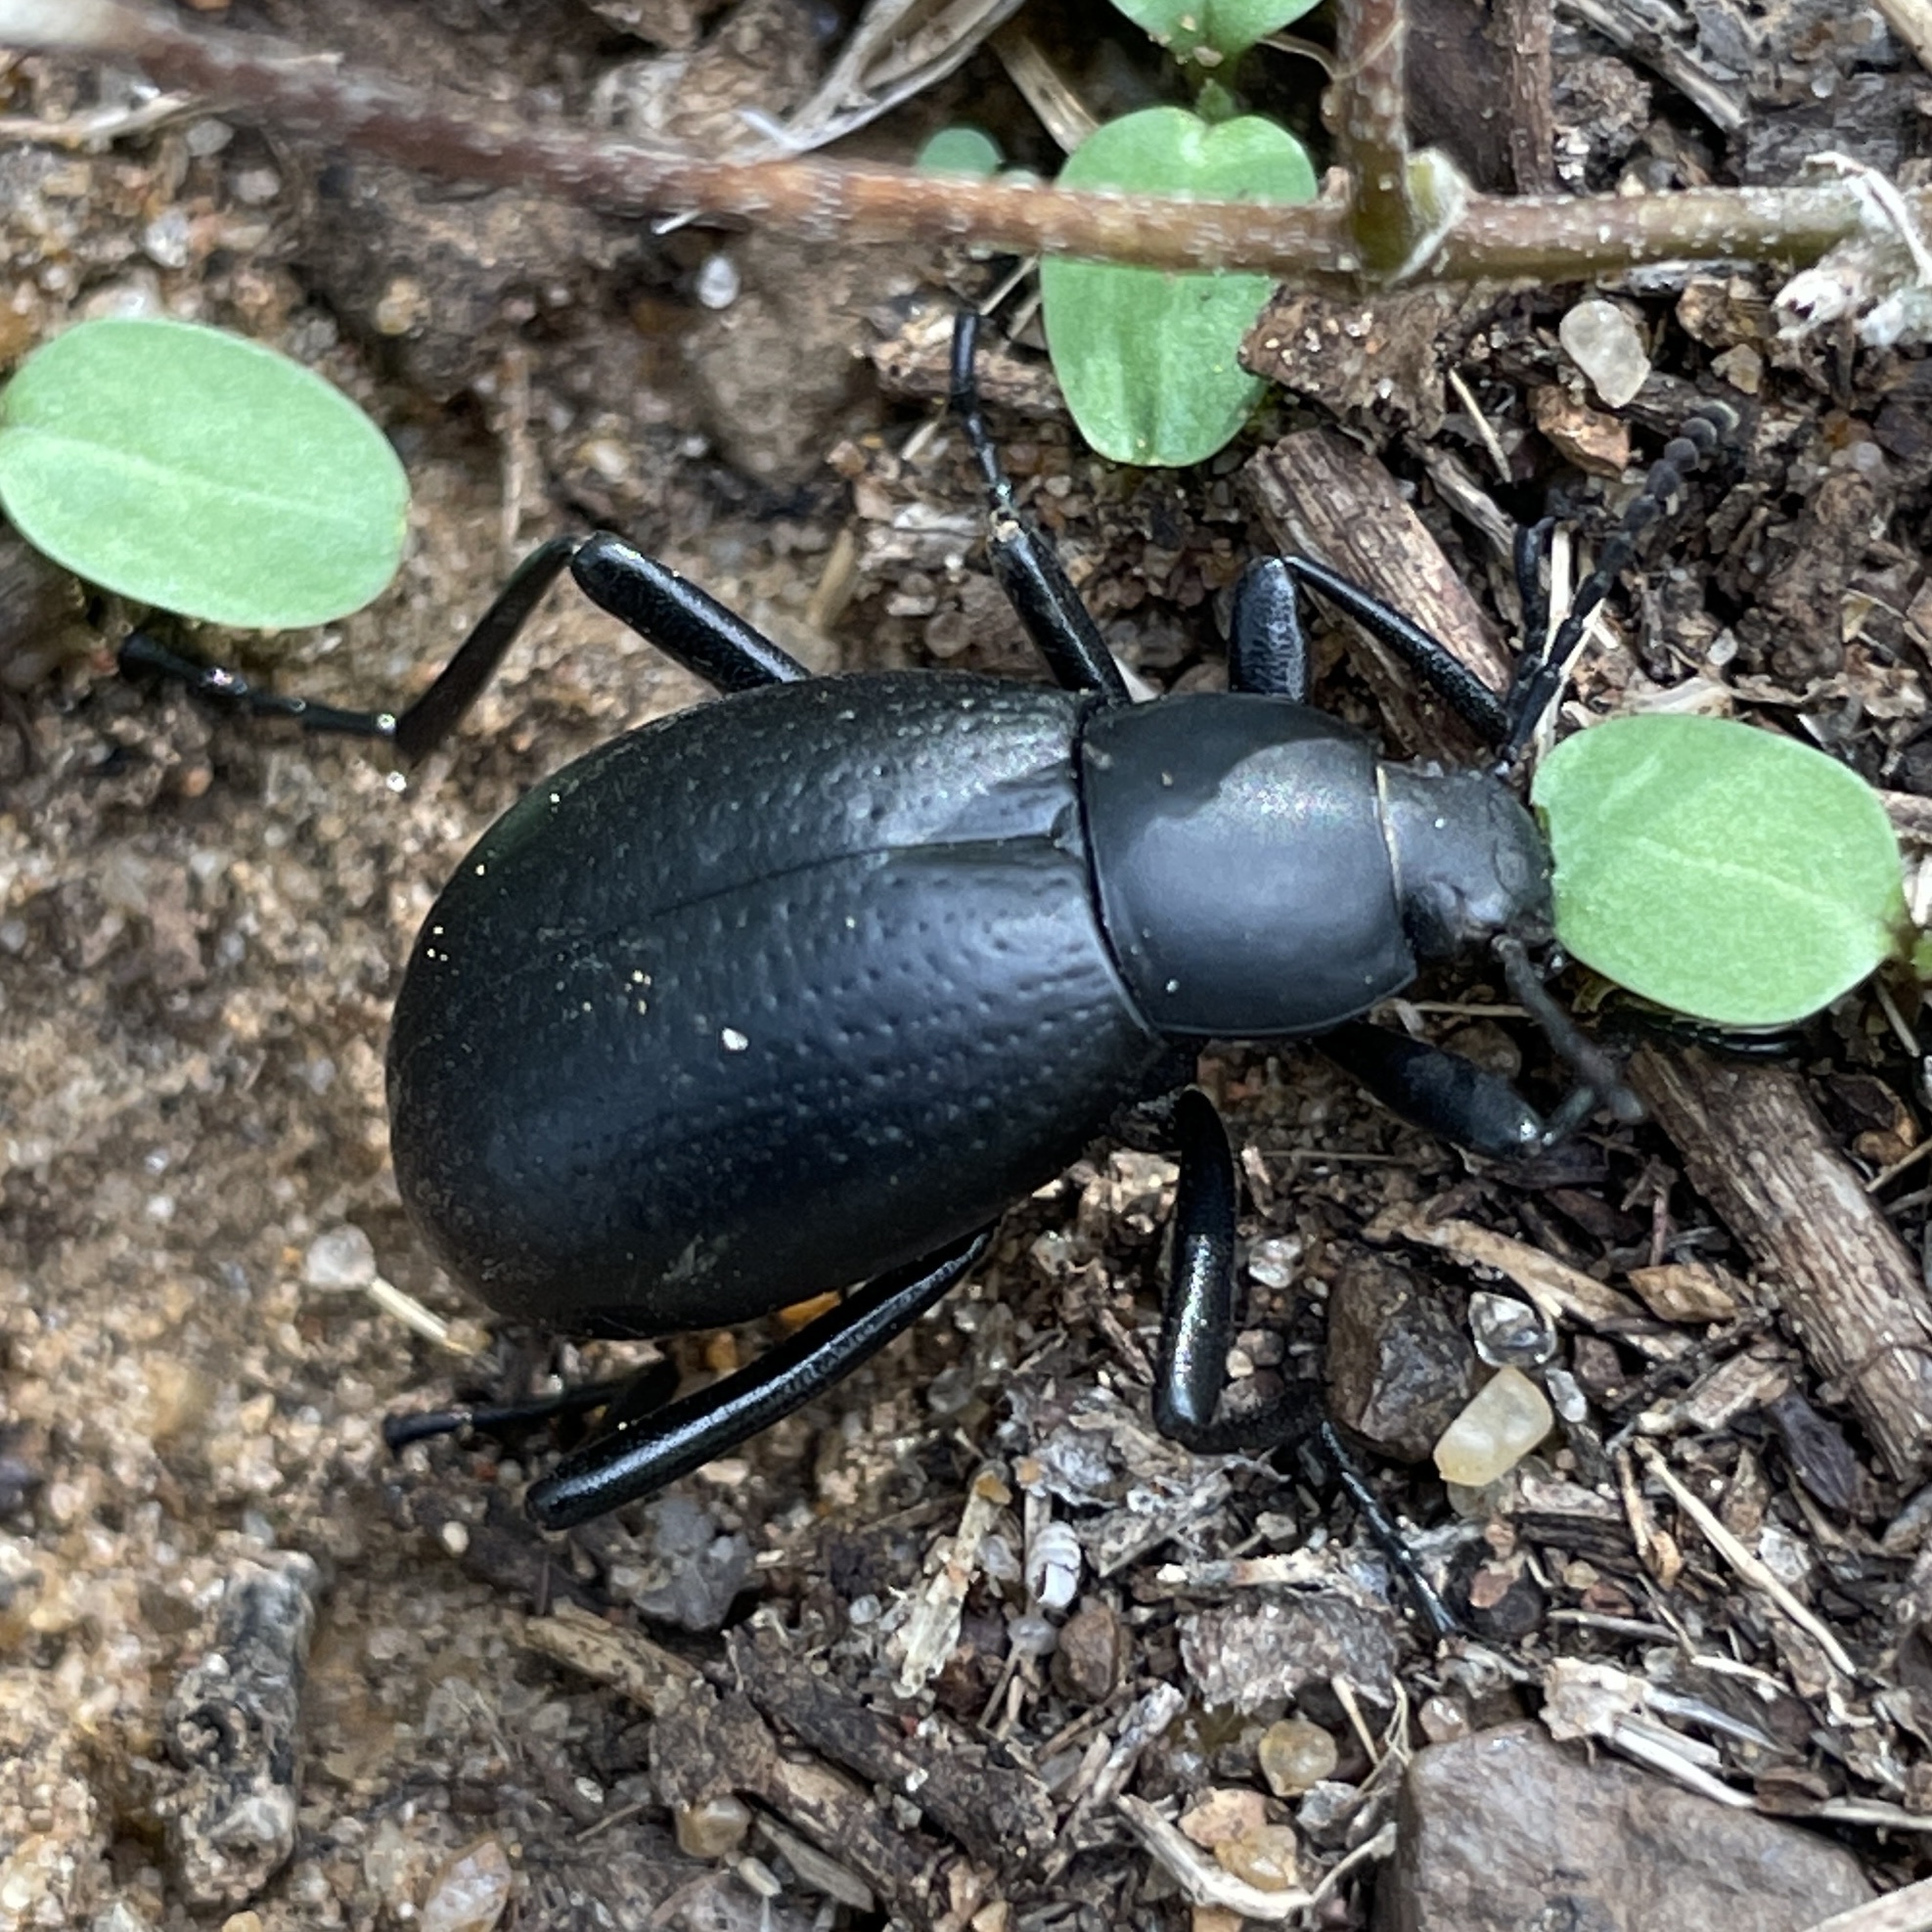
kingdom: Animalia
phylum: Arthropoda
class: Insecta
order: Coleoptera
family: Tenebrionidae
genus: Eleodes
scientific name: Eleodes goryi
